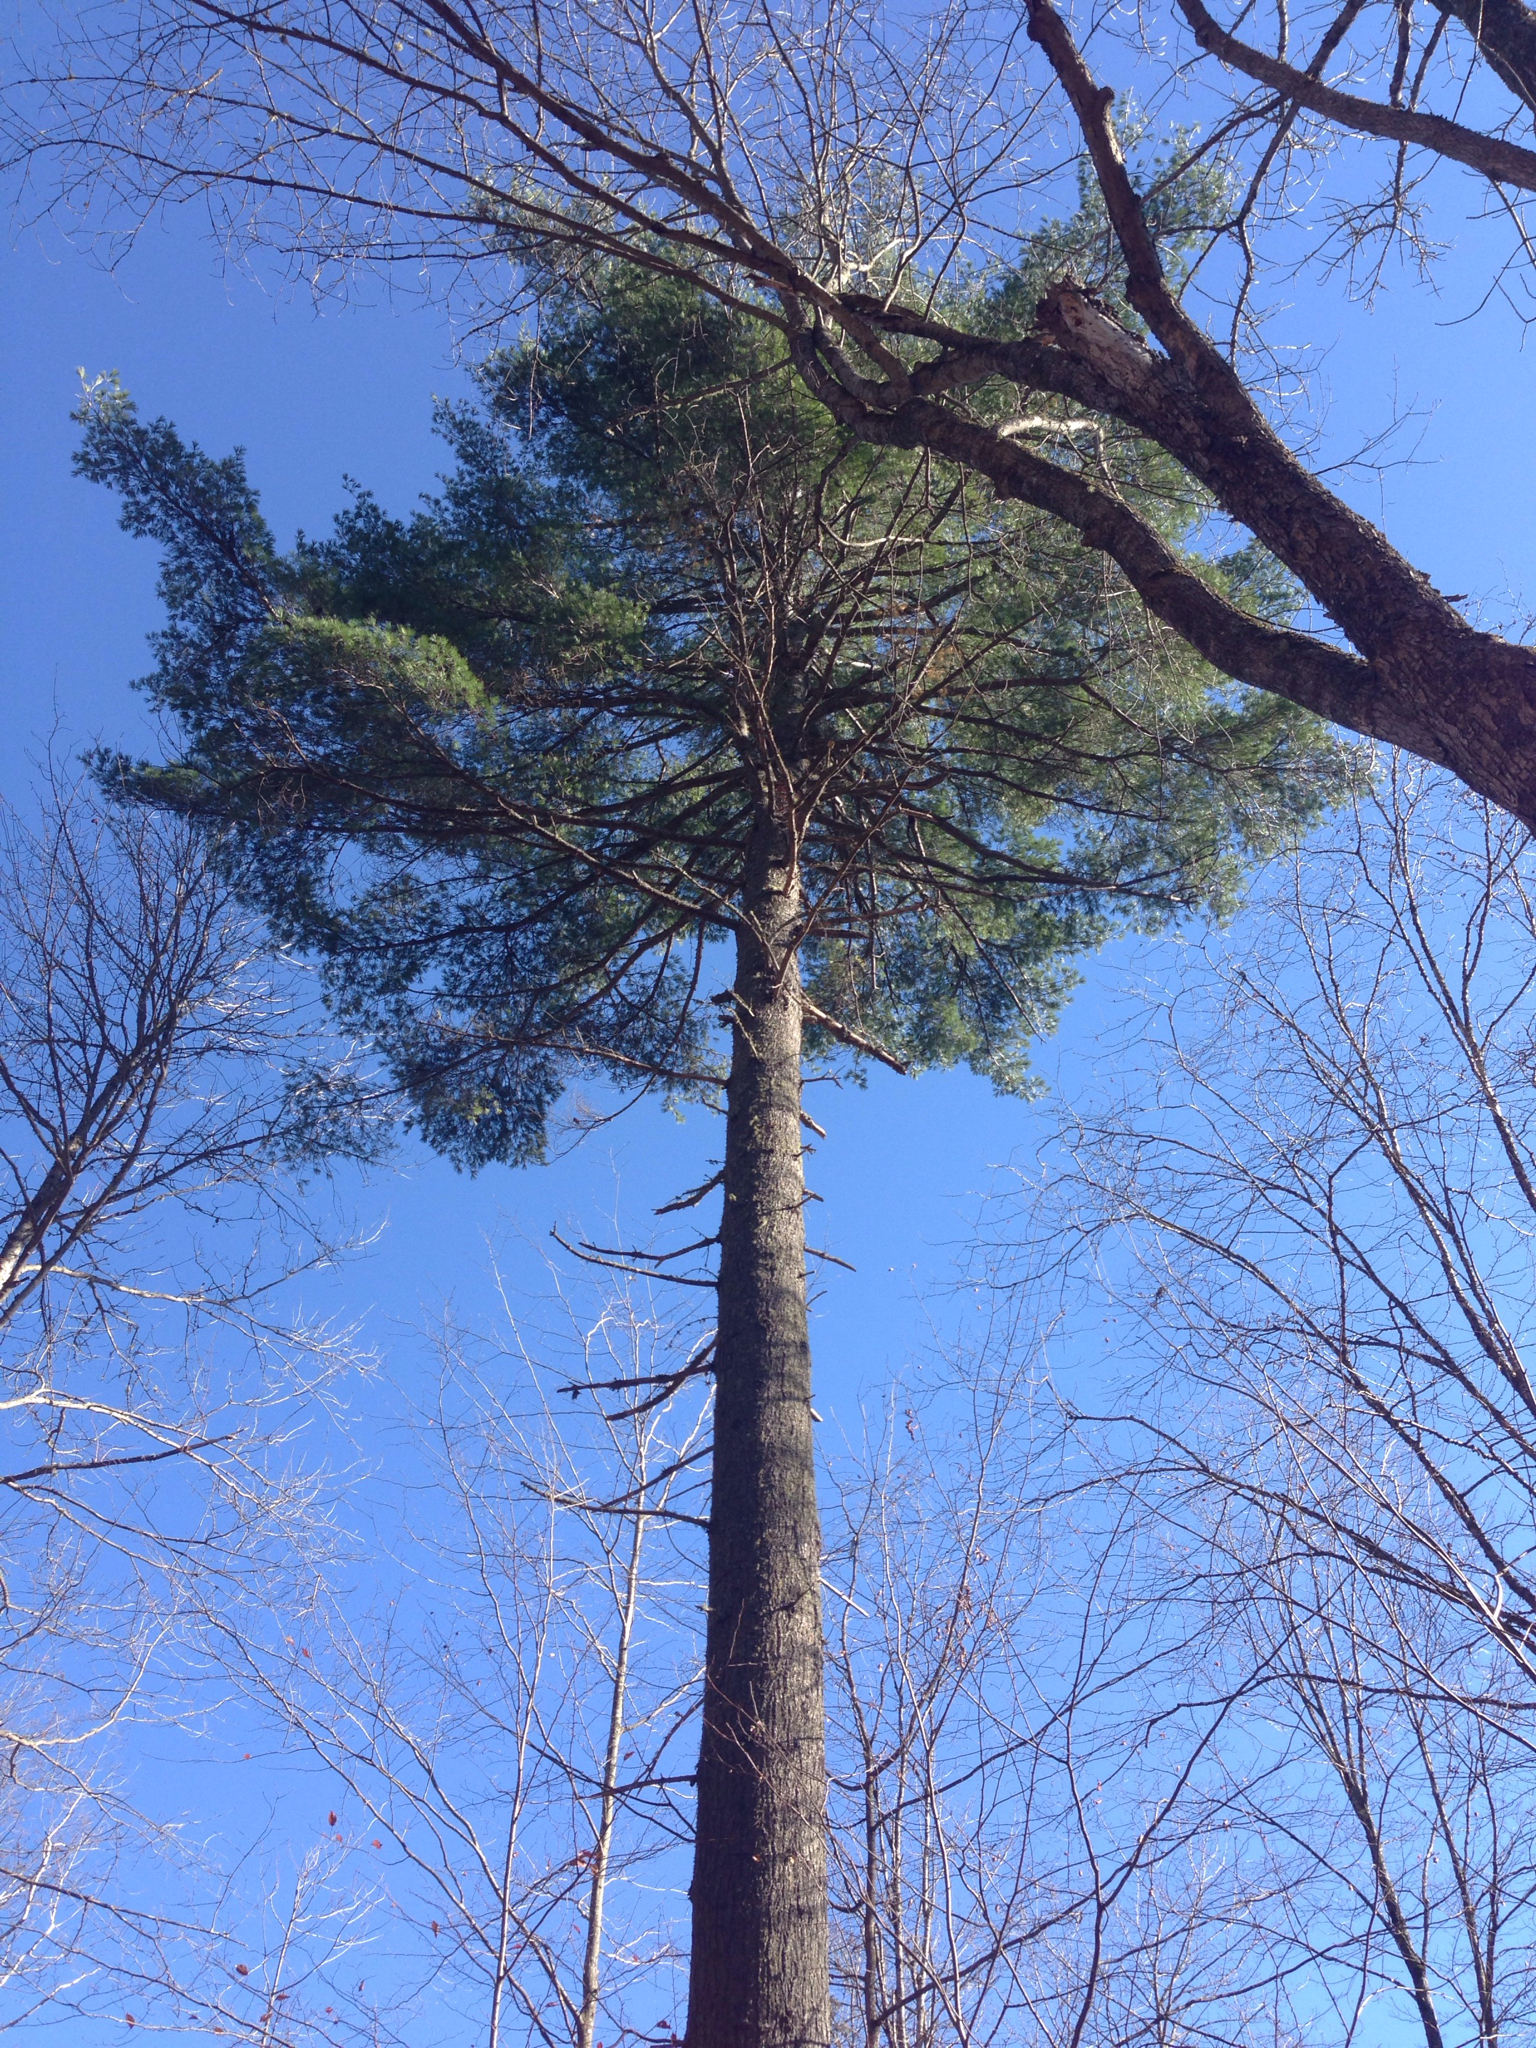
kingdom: Plantae
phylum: Tracheophyta
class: Pinopsida
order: Pinales
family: Pinaceae
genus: Pinus
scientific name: Pinus strobus
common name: Weymouth pine
